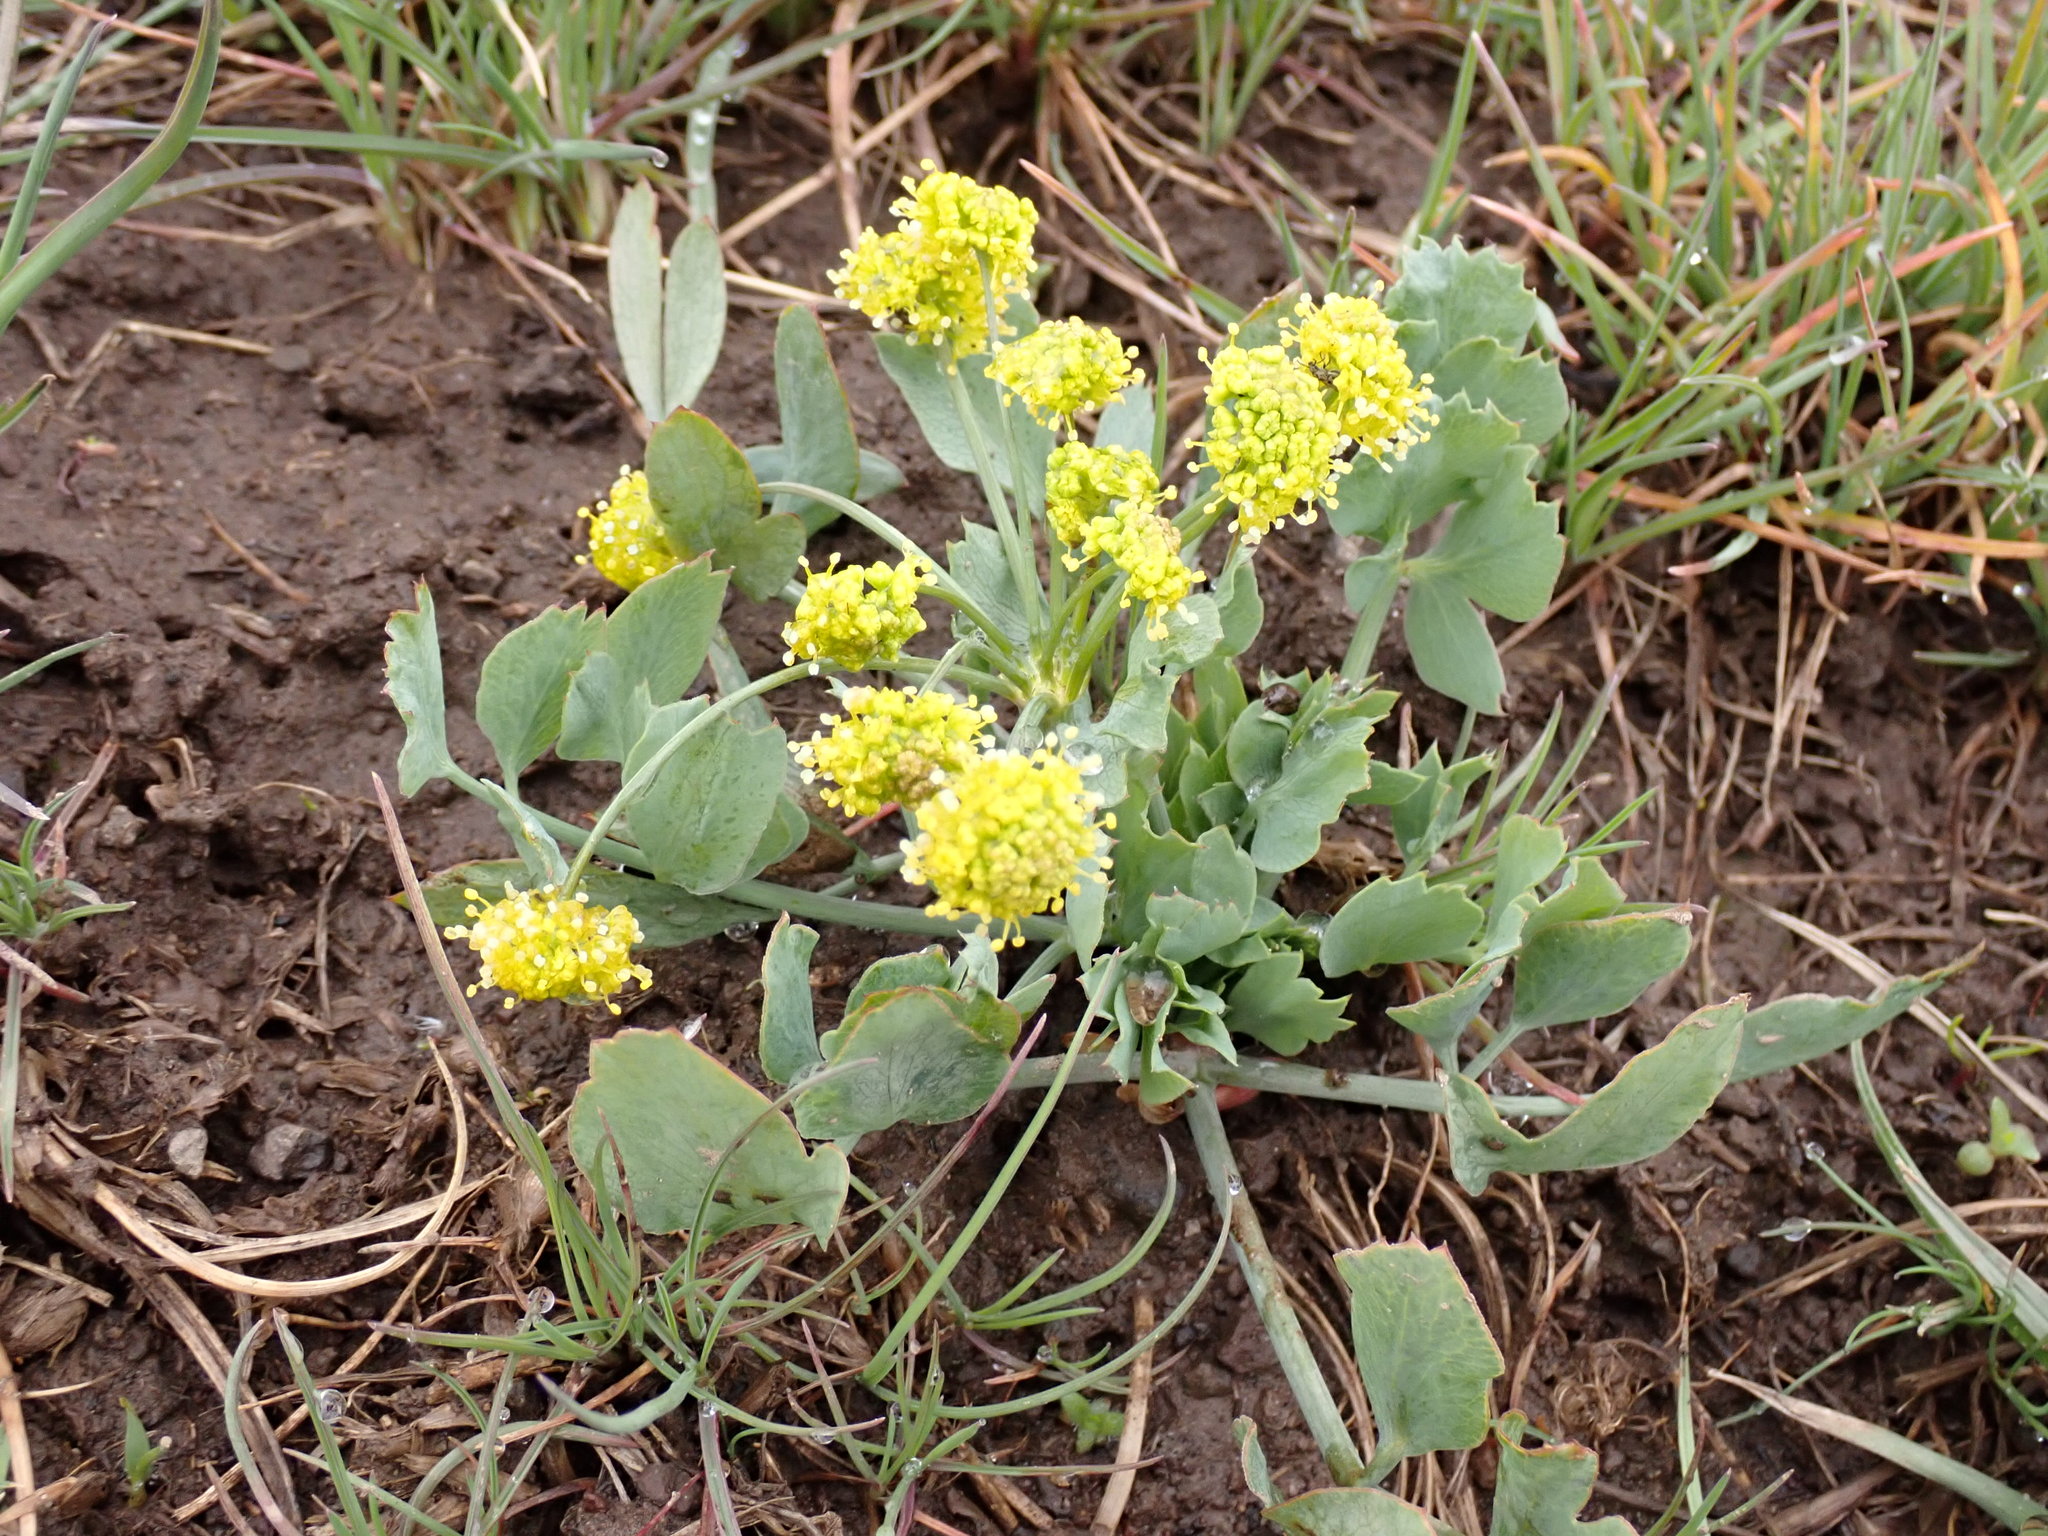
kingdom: Plantae
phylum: Tracheophyta
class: Magnoliopsida
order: Apiales
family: Apiaceae
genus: Lomatium
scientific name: Lomatium nudicaule
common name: Pestle lomatium
